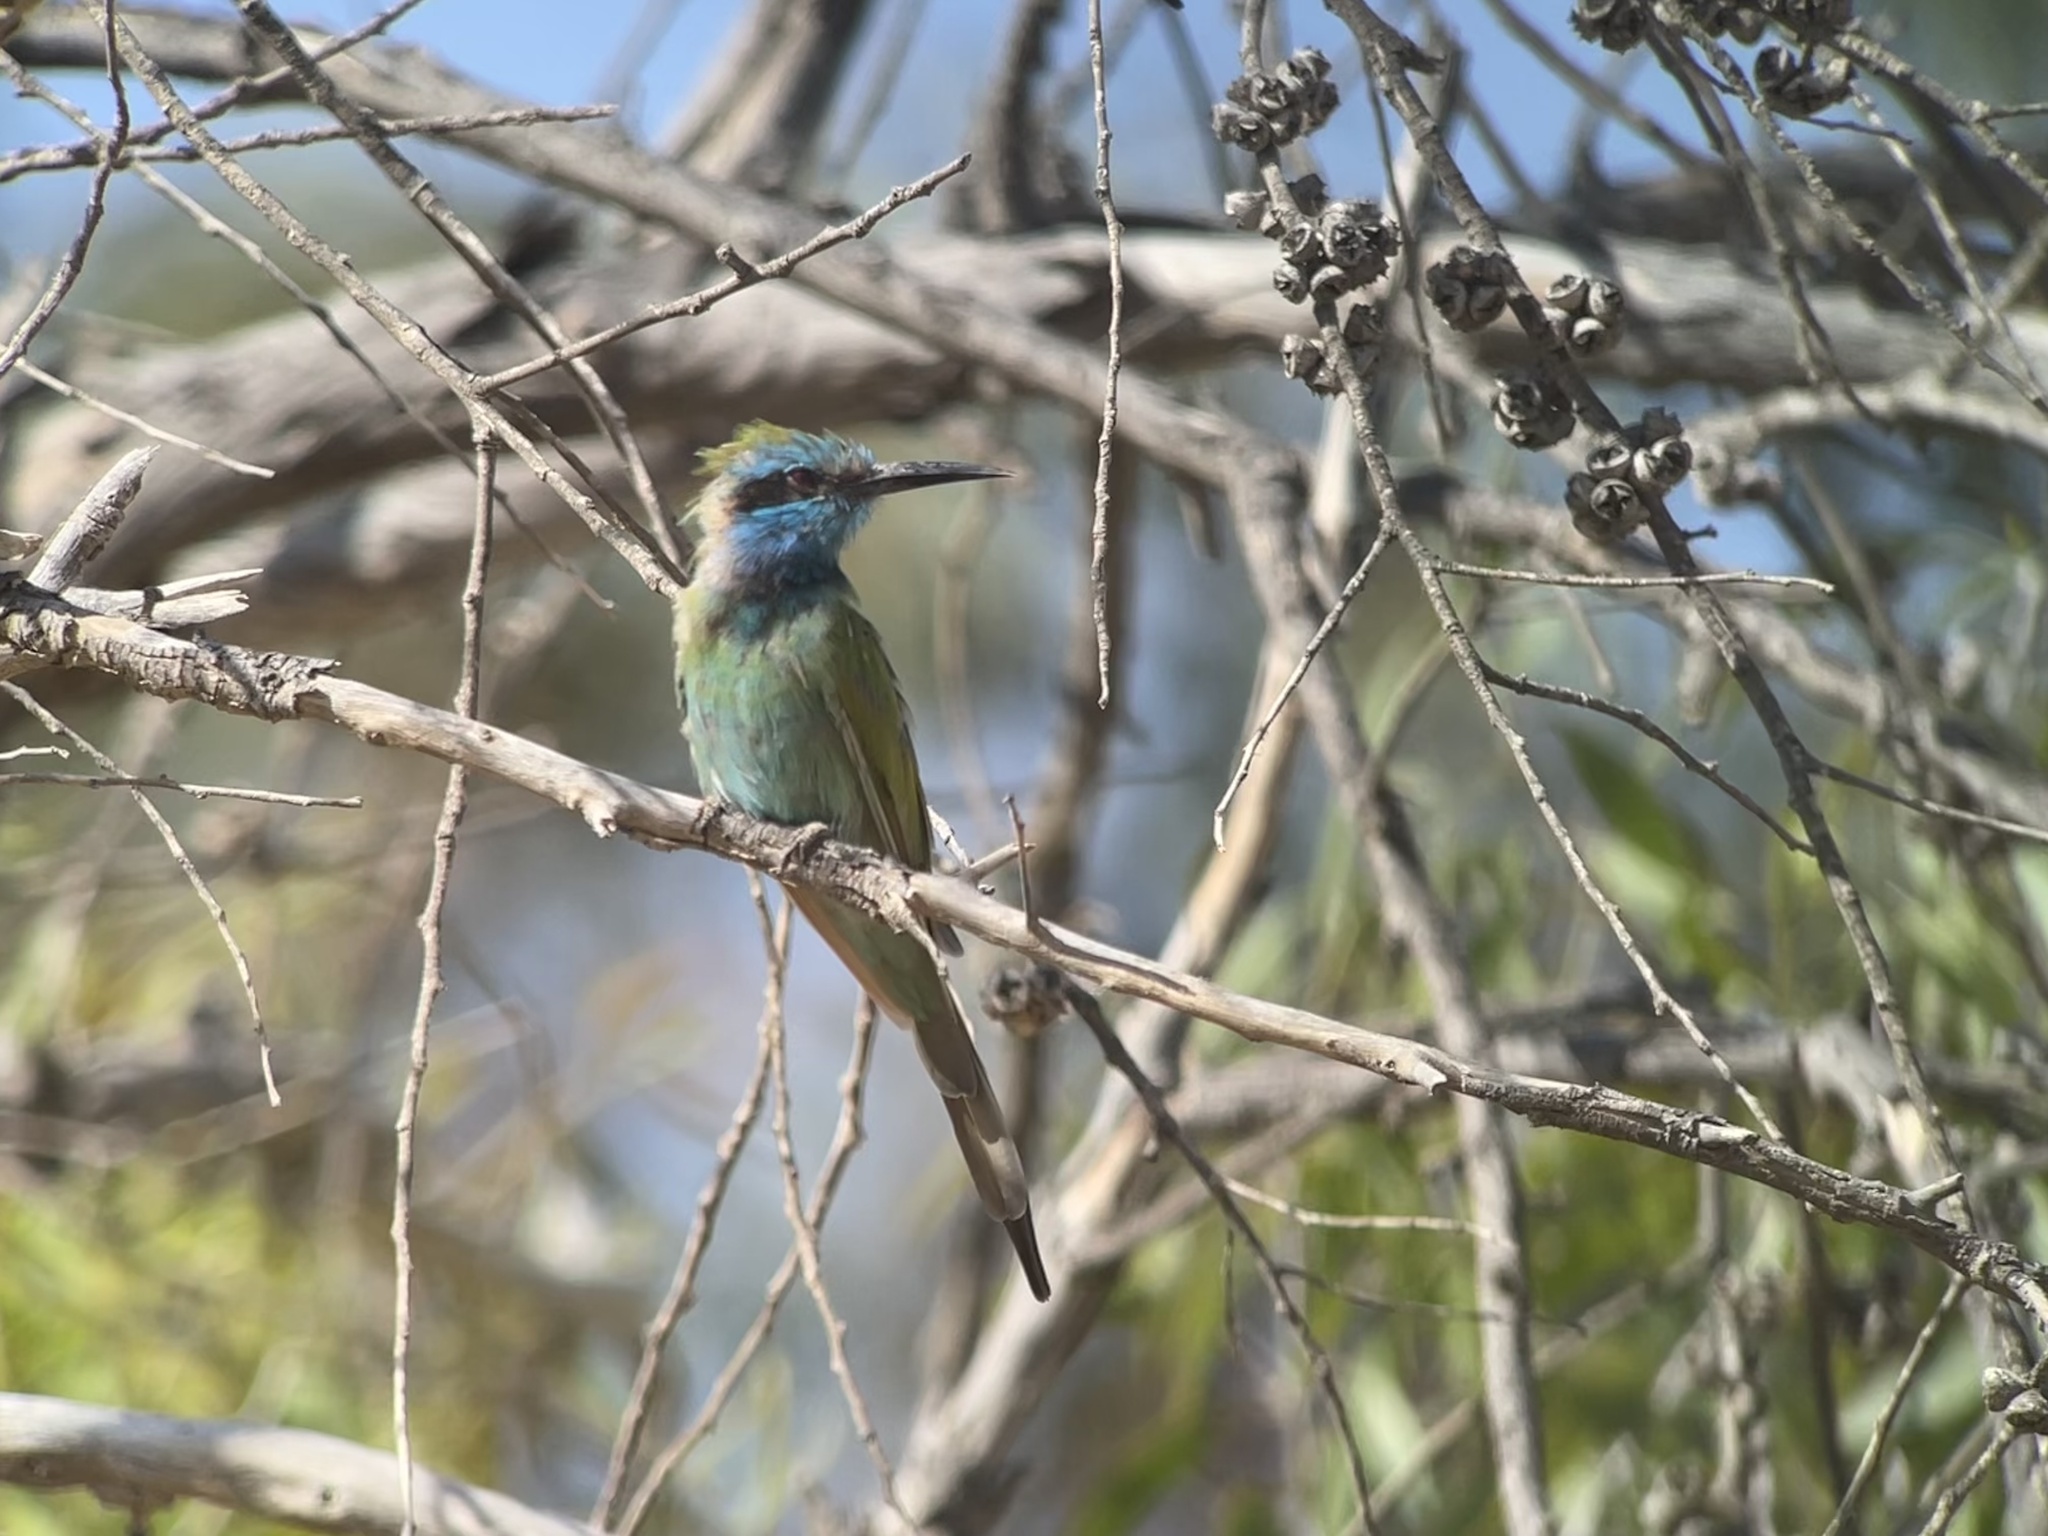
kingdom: Animalia
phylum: Chordata
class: Aves
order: Coraciiformes
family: Meropidae
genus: Merops
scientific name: Merops cyanophrys
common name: Arabian green bee-eater
